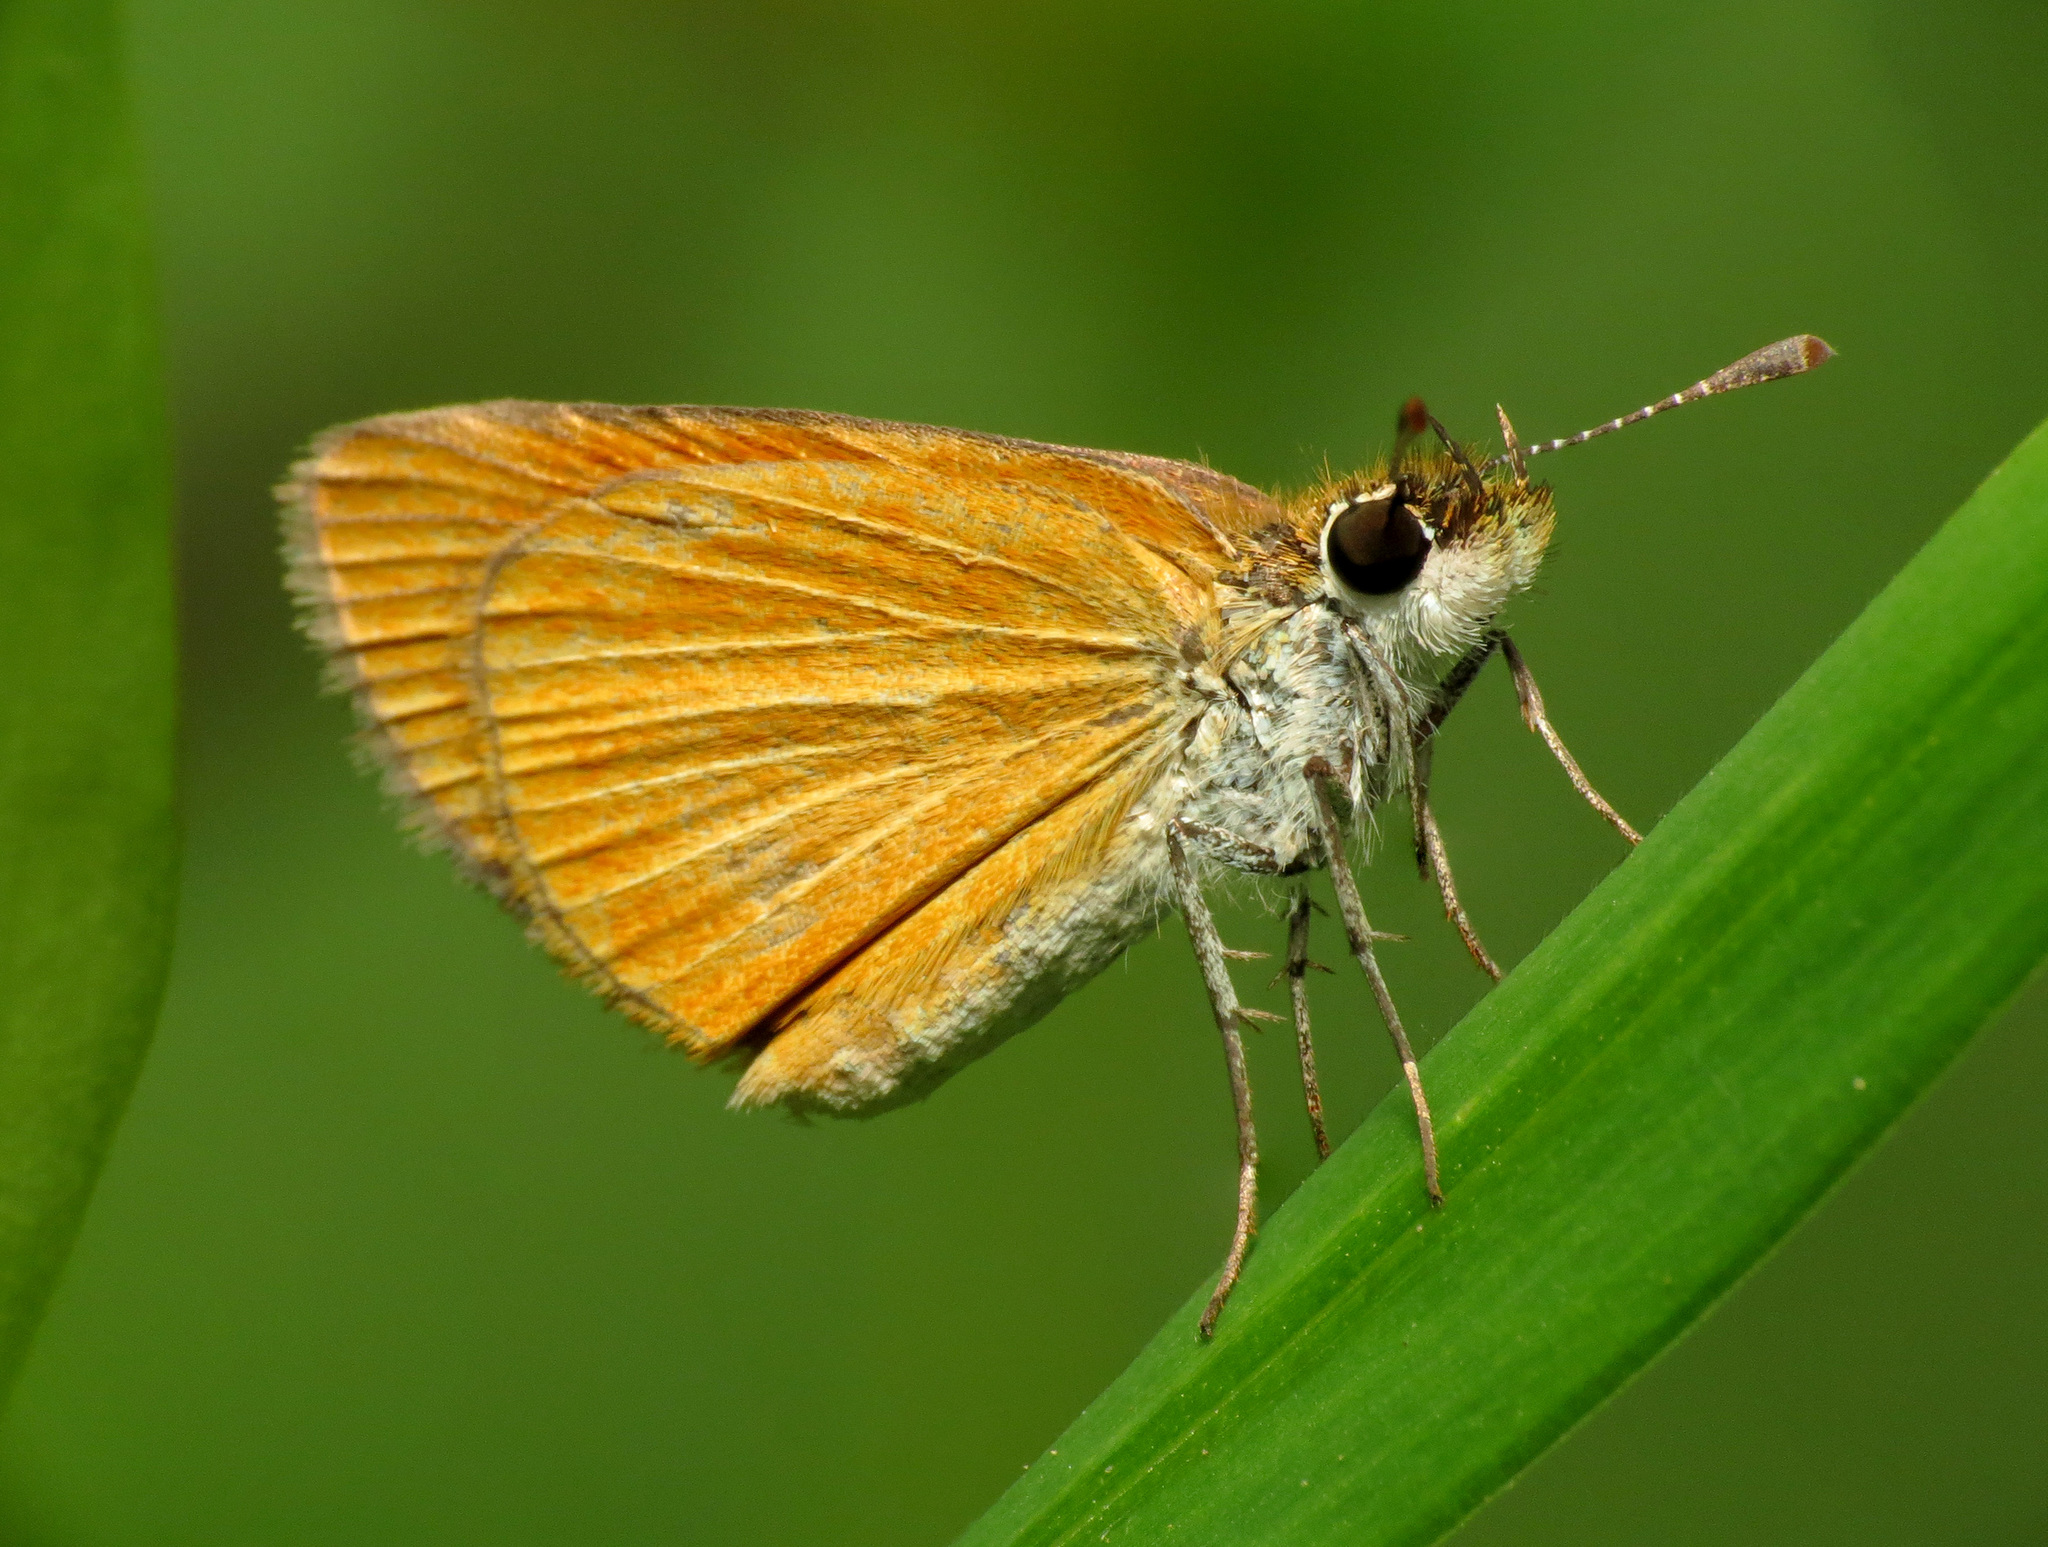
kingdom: Animalia
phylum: Arthropoda
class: Insecta
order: Lepidoptera
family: Hesperiidae
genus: Ancyloxypha
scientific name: Ancyloxypha numitor
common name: Least skipper
